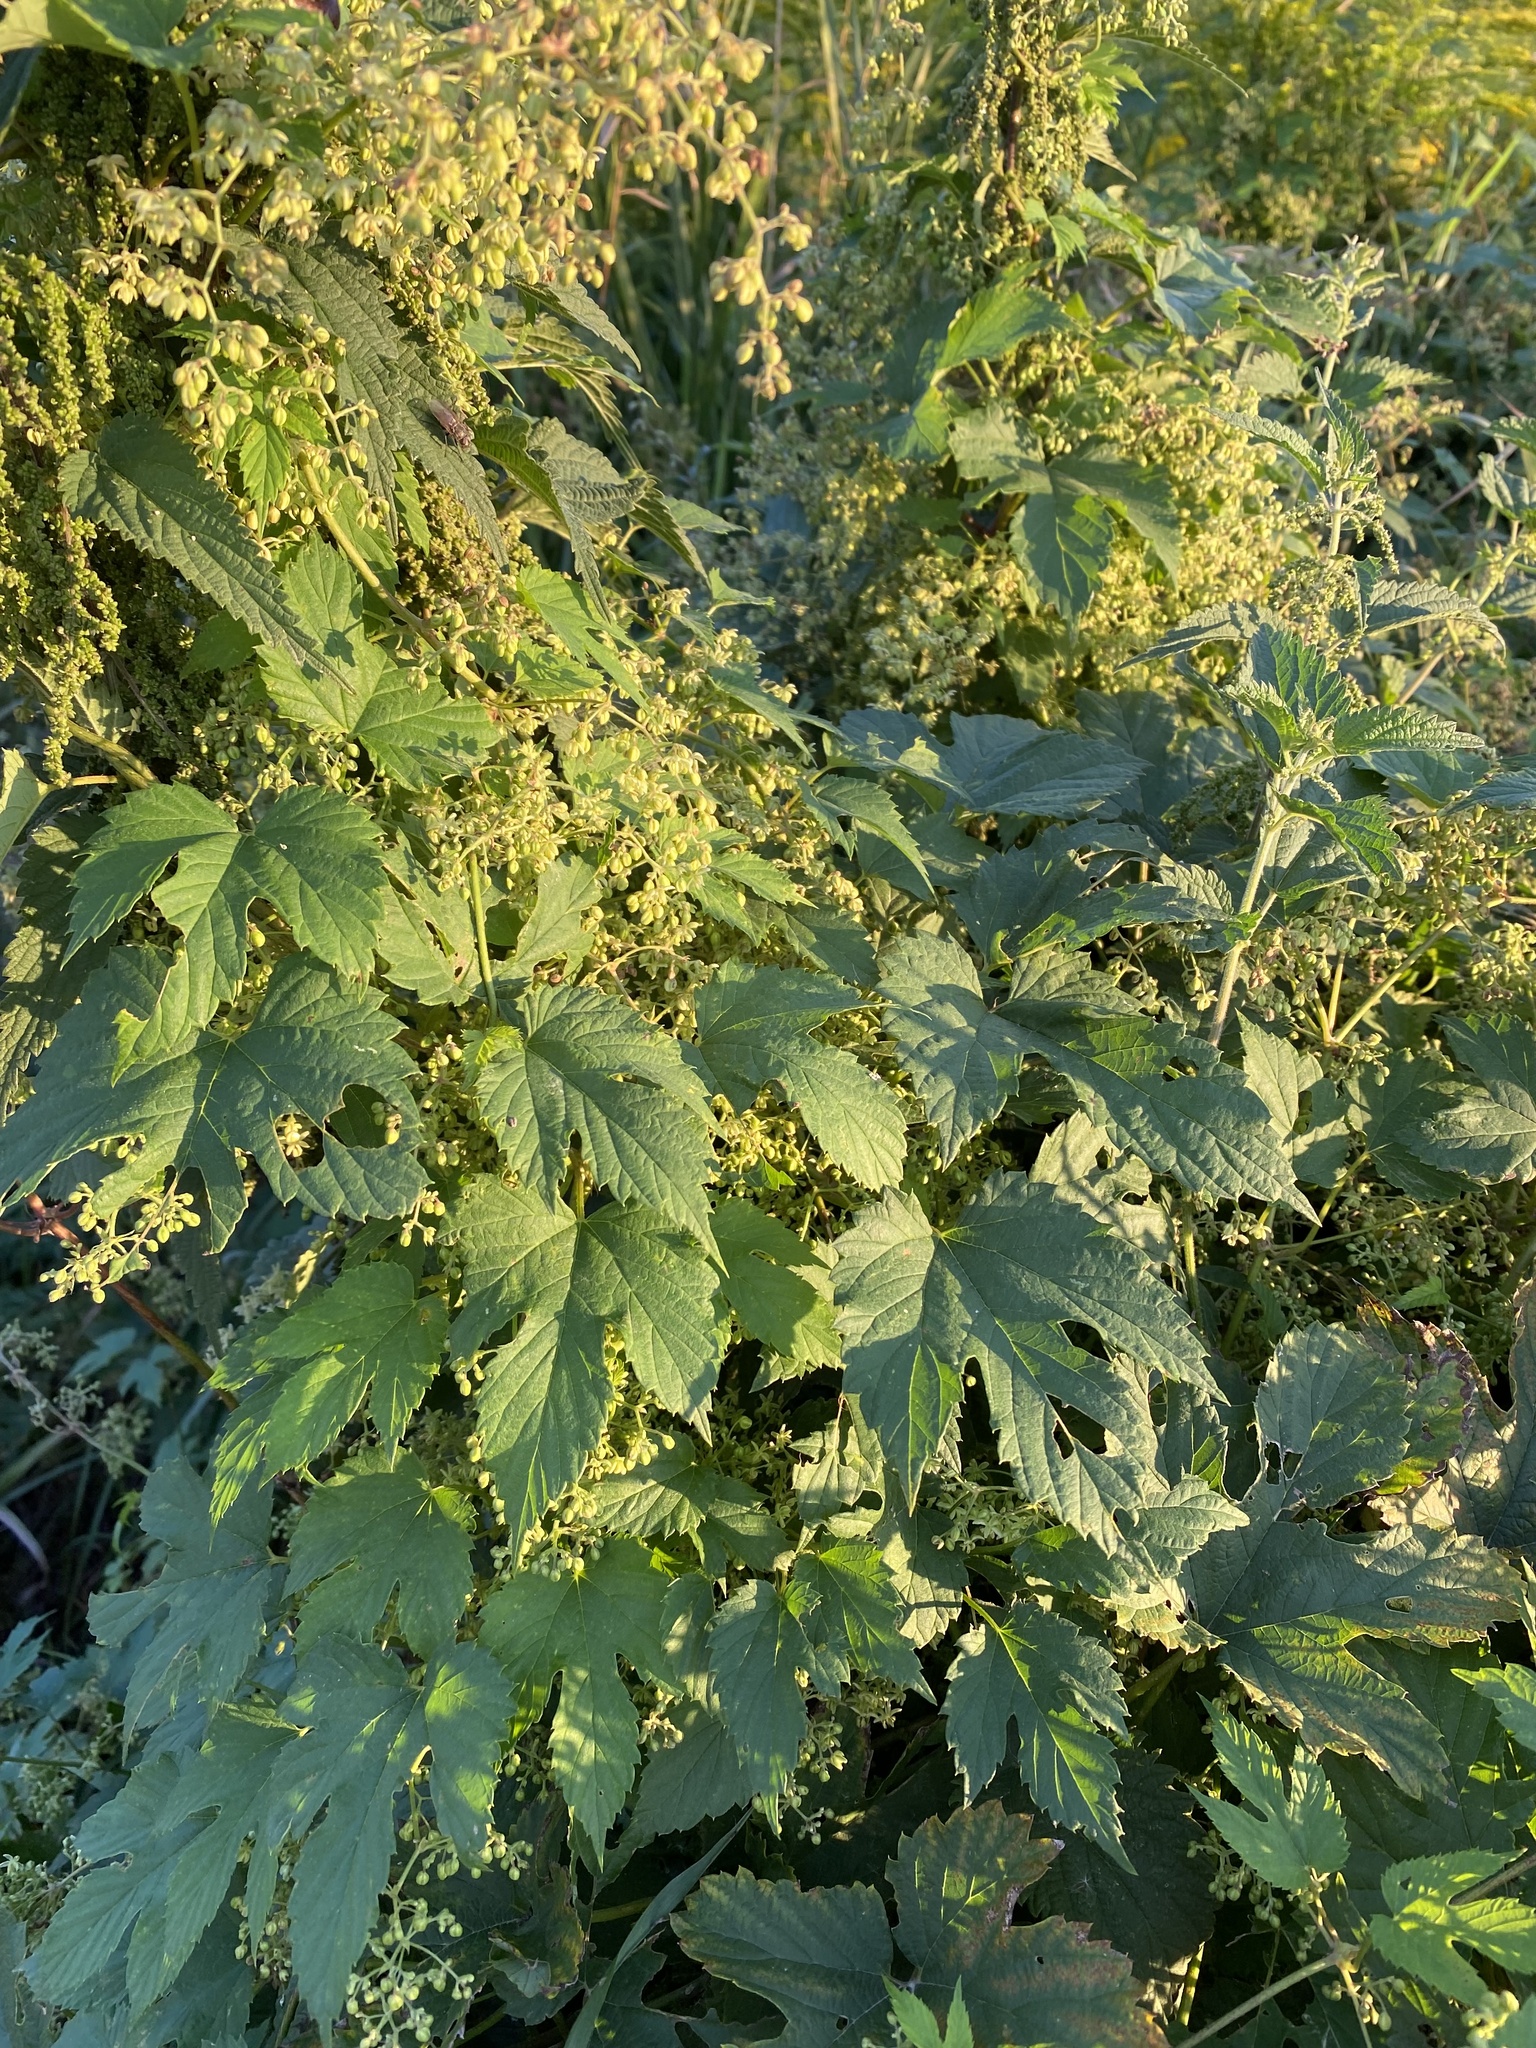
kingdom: Plantae
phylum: Tracheophyta
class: Magnoliopsida
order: Rosales
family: Cannabaceae
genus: Humulus
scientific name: Humulus lupulus
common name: Hop
